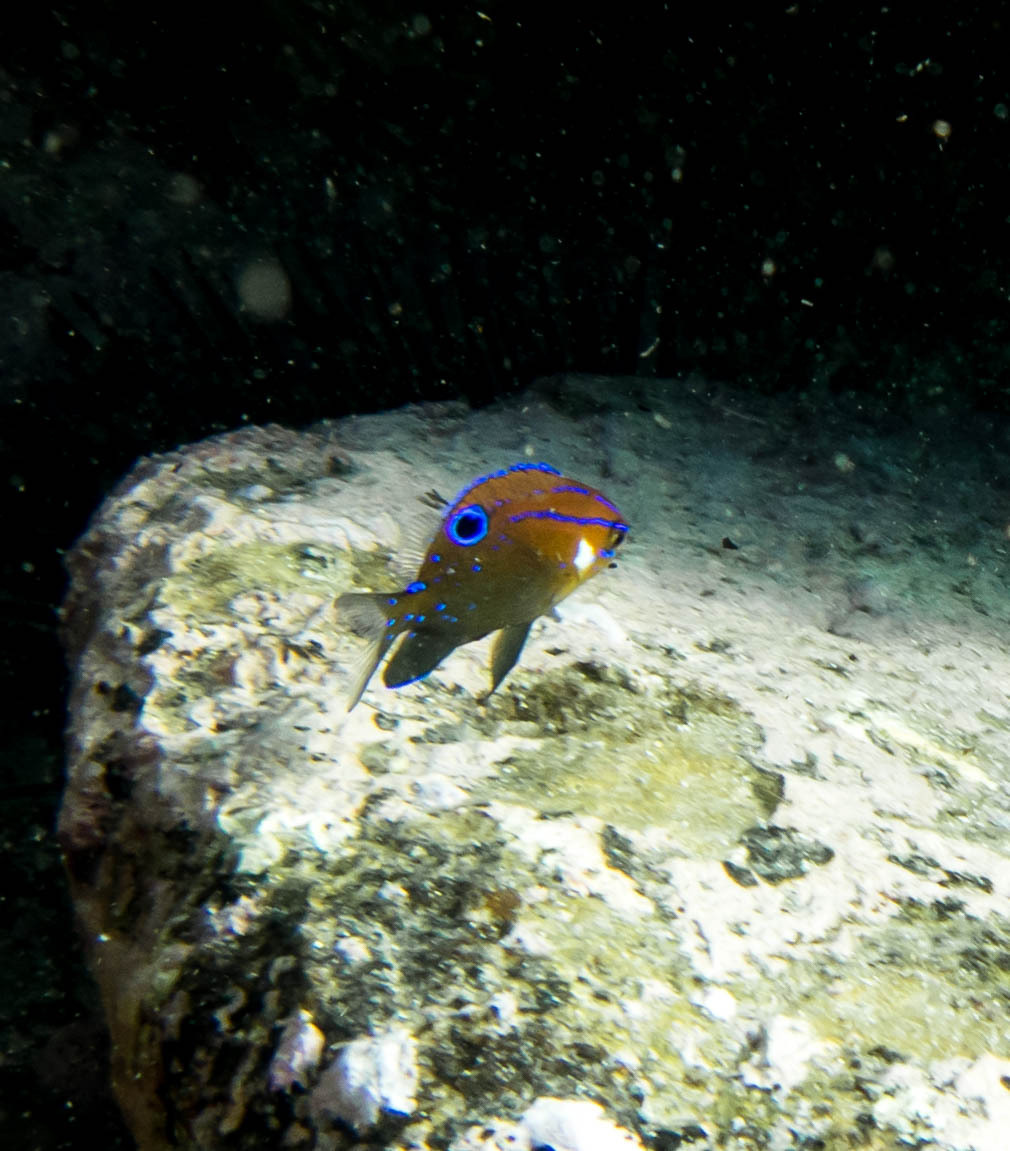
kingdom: Animalia
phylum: Chordata
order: Perciformes
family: Pomacentridae
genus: Parma
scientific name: Parma microlepis
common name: White-ear
